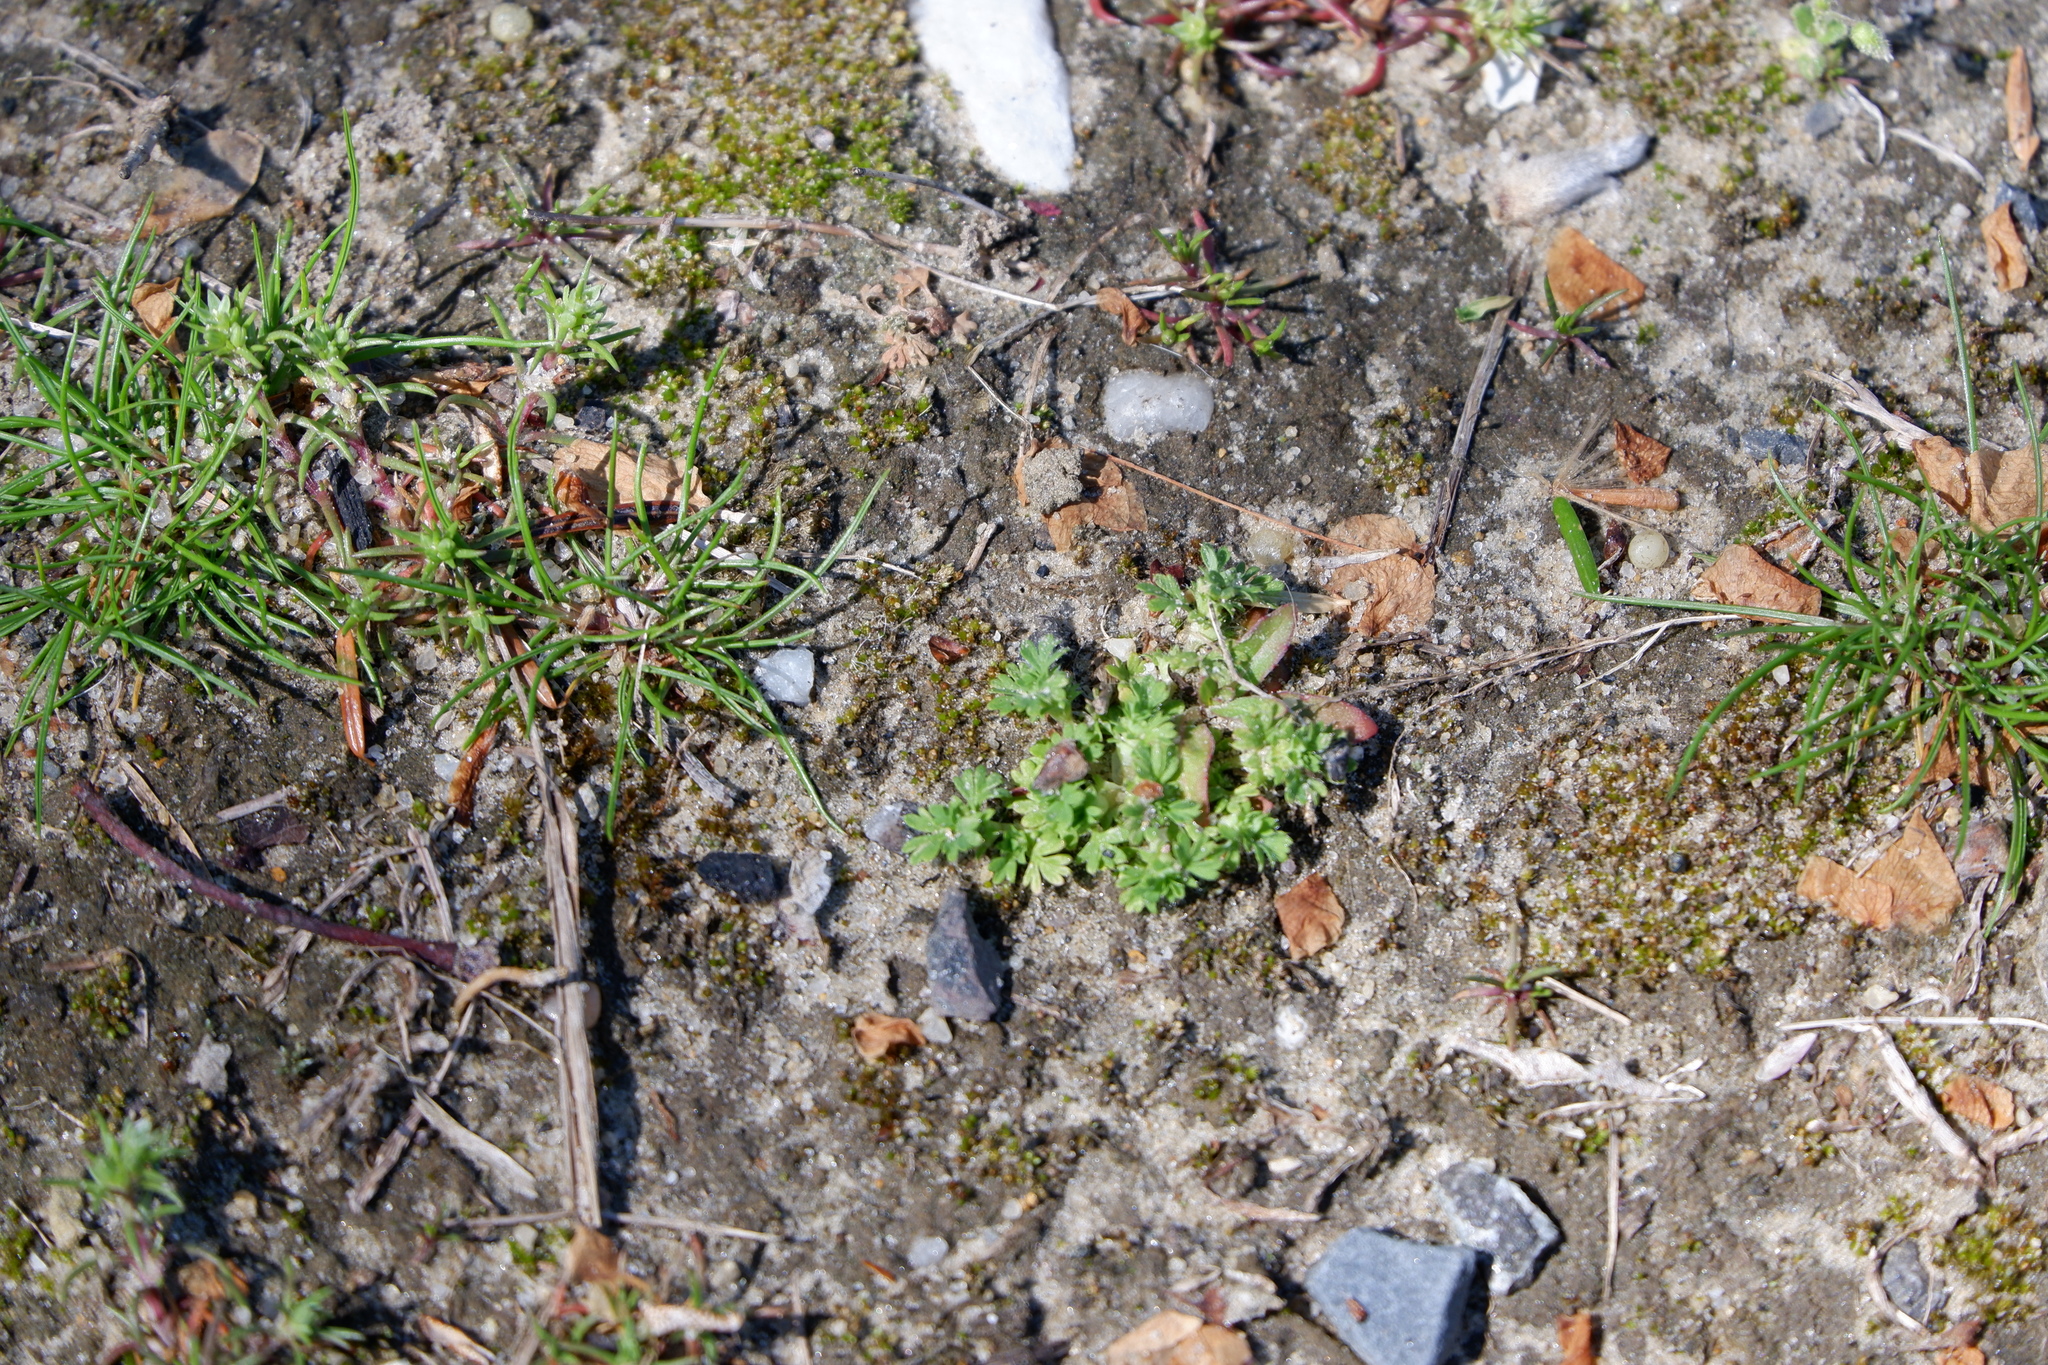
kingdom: Plantae
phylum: Tracheophyta
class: Magnoliopsida
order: Rosales
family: Rosaceae
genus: Aphanes
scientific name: Aphanes australis
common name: Slender parsley-piert
